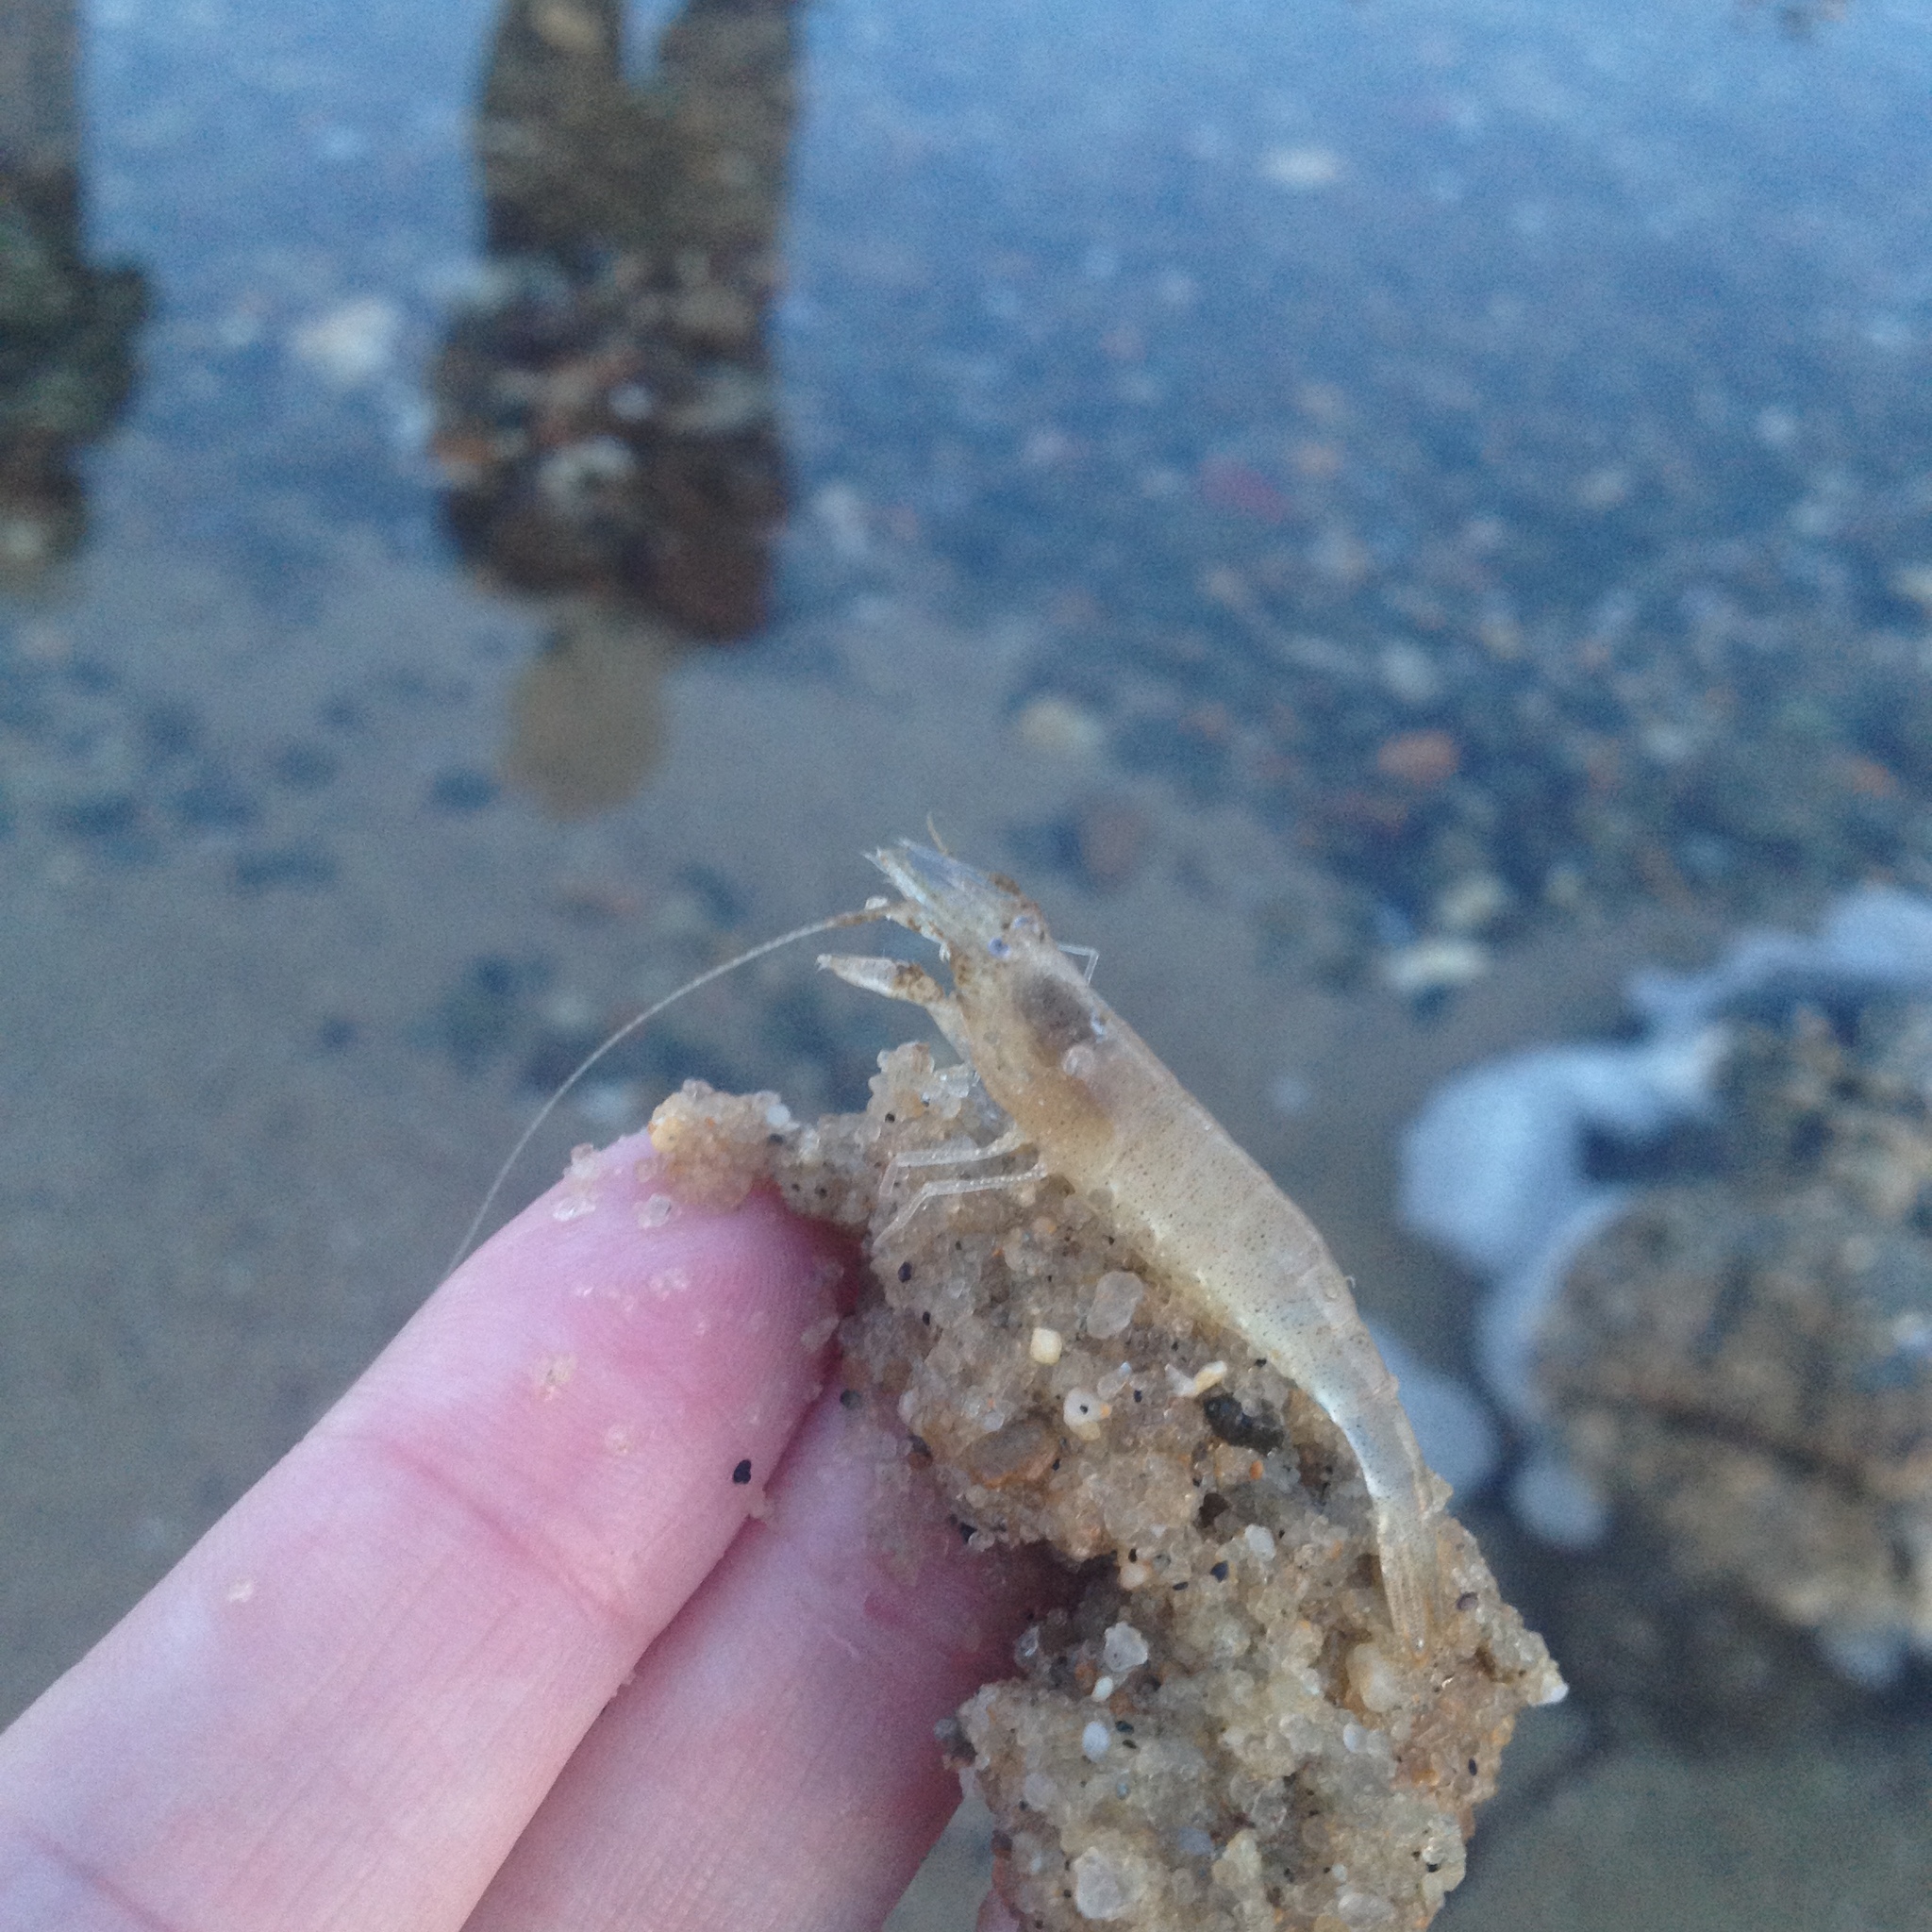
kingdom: Animalia
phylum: Arthropoda
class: Malacostraca
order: Decapoda
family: Crangonidae
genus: Crangon
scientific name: Crangon septemspinosa
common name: Bail shrimp
